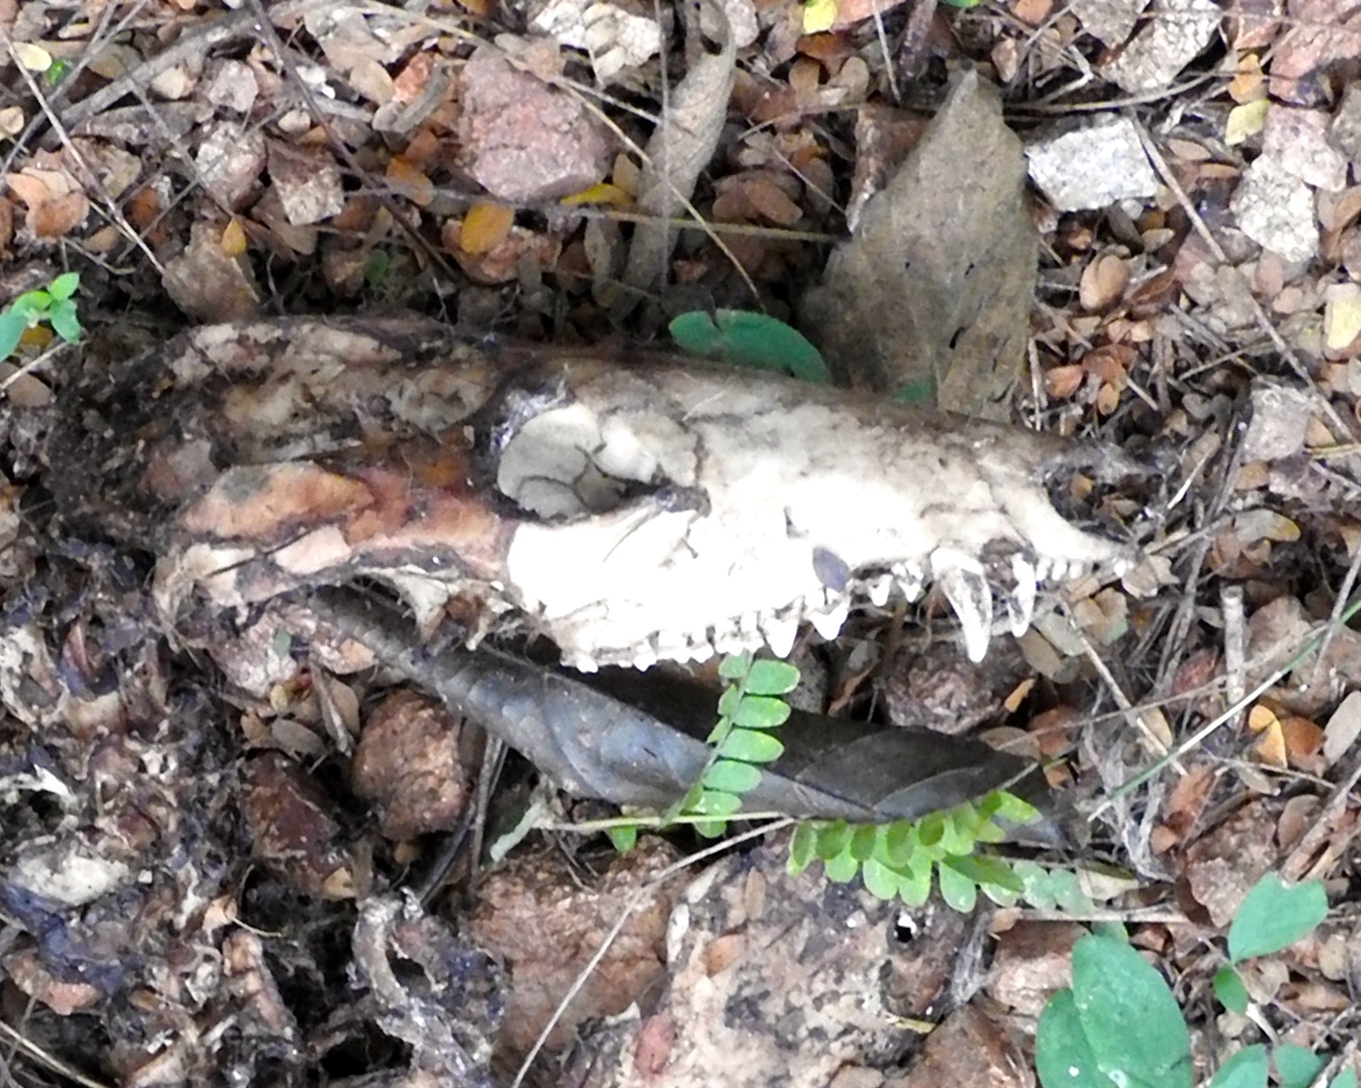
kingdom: Animalia
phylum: Chordata
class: Mammalia
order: Didelphimorphia
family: Didelphidae
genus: Didelphis
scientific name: Didelphis virginiana
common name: Virginia opossum
